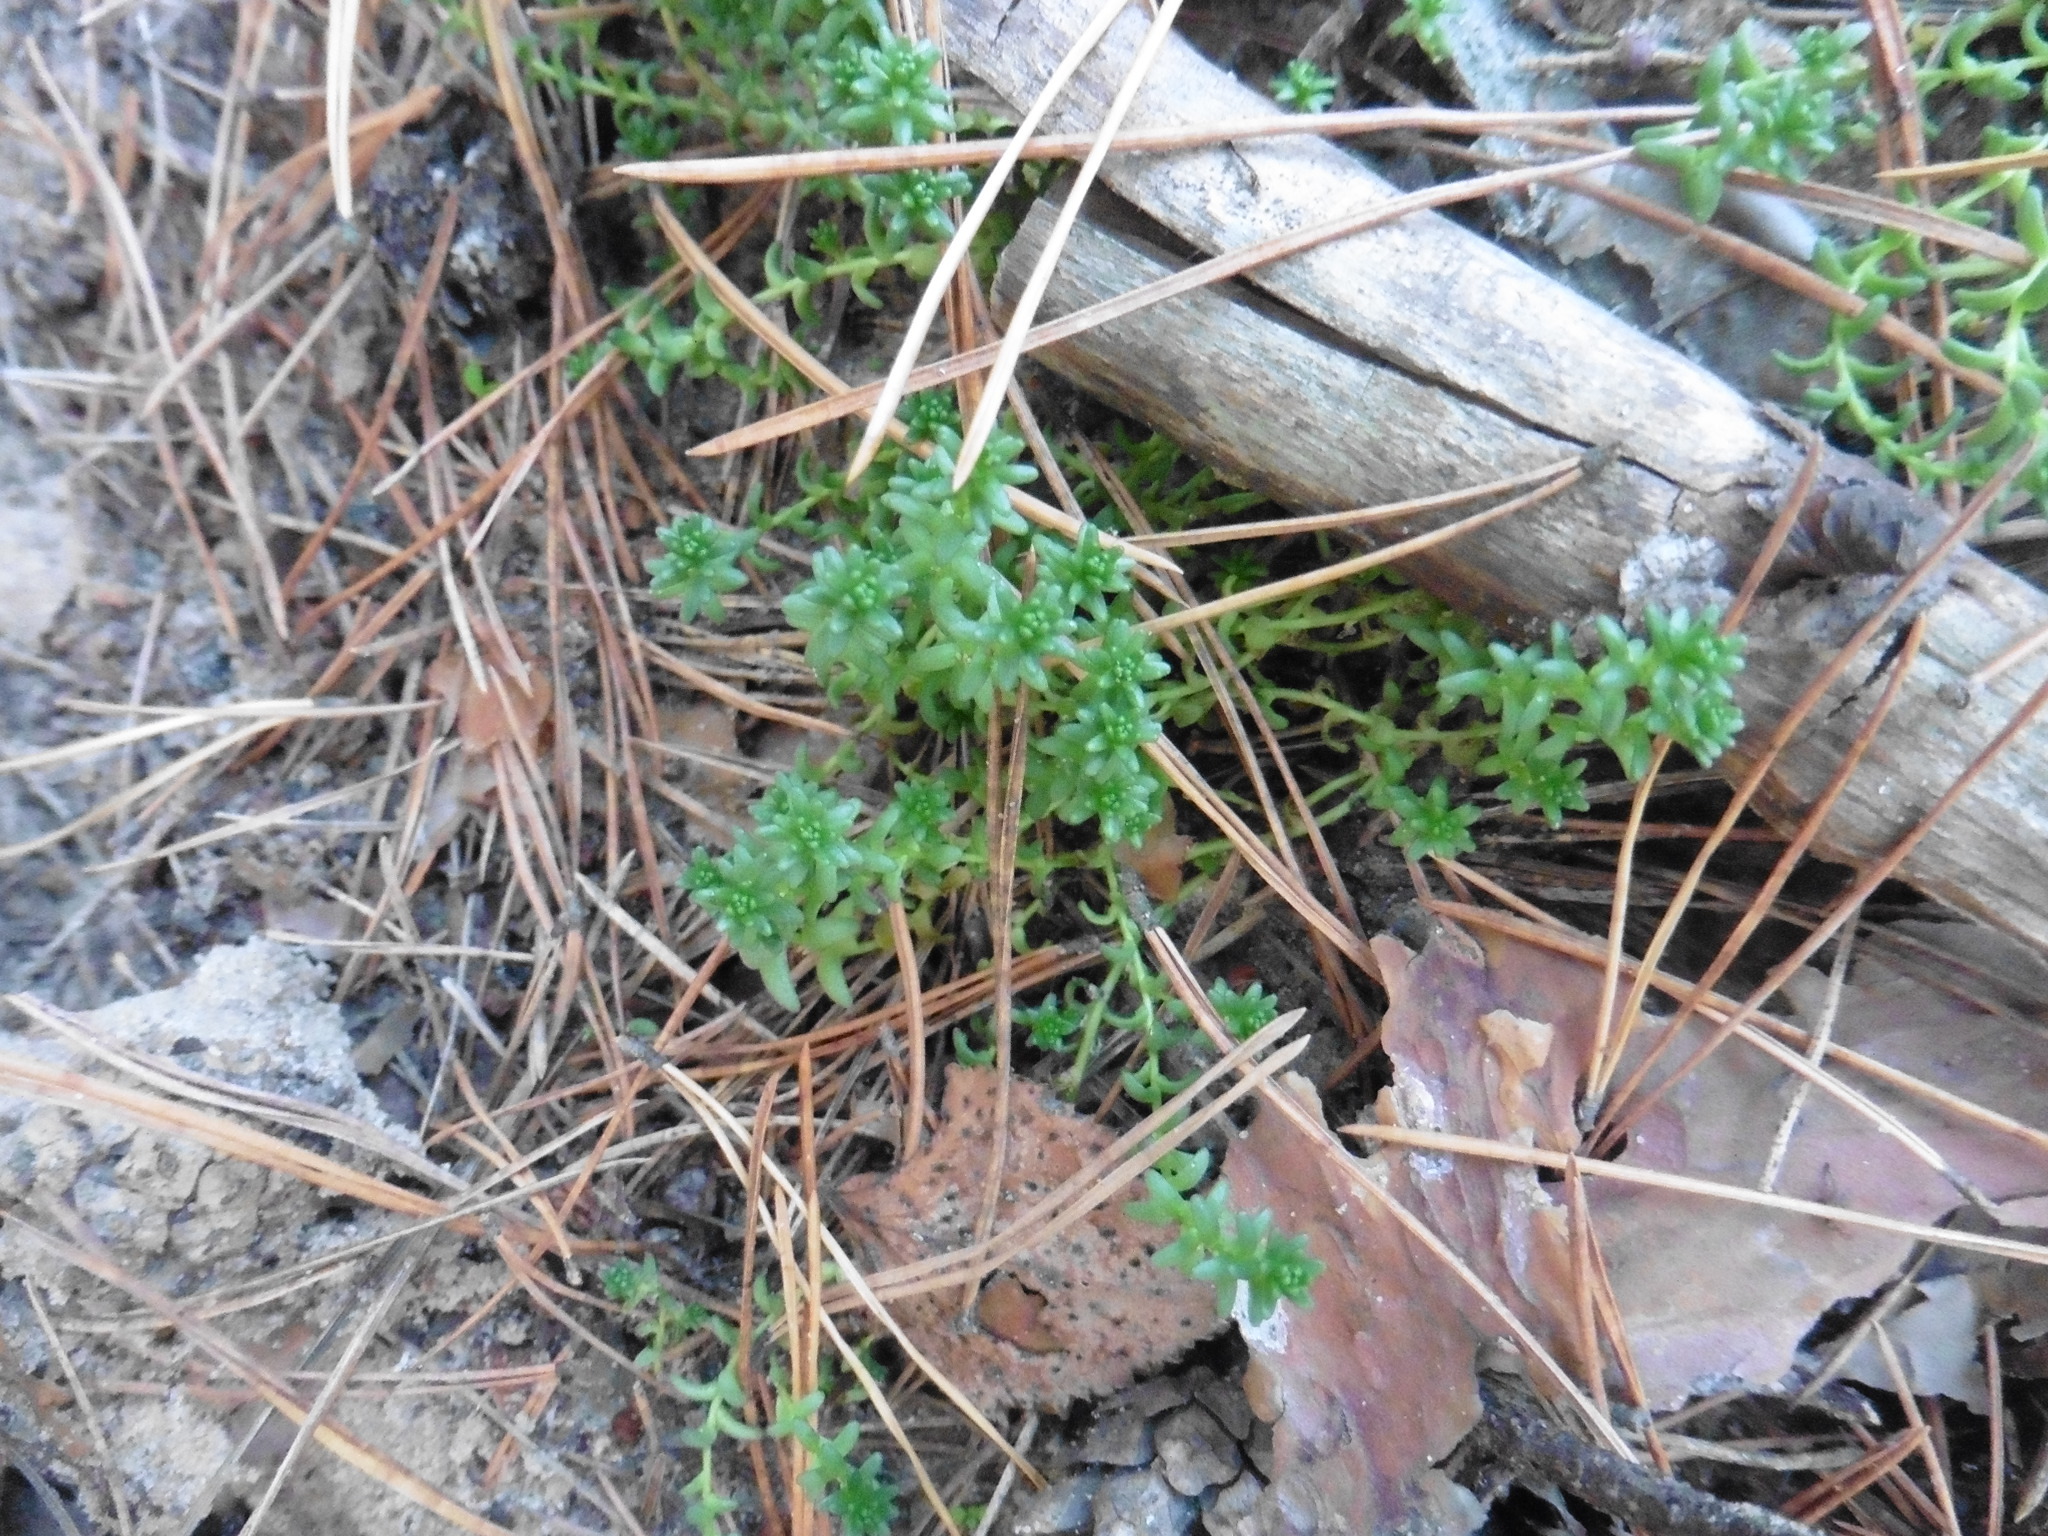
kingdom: Plantae
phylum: Tracheophyta
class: Magnoliopsida
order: Saxifragales
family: Crassulaceae
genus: Sedum
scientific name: Sedum acre
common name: Biting stonecrop
